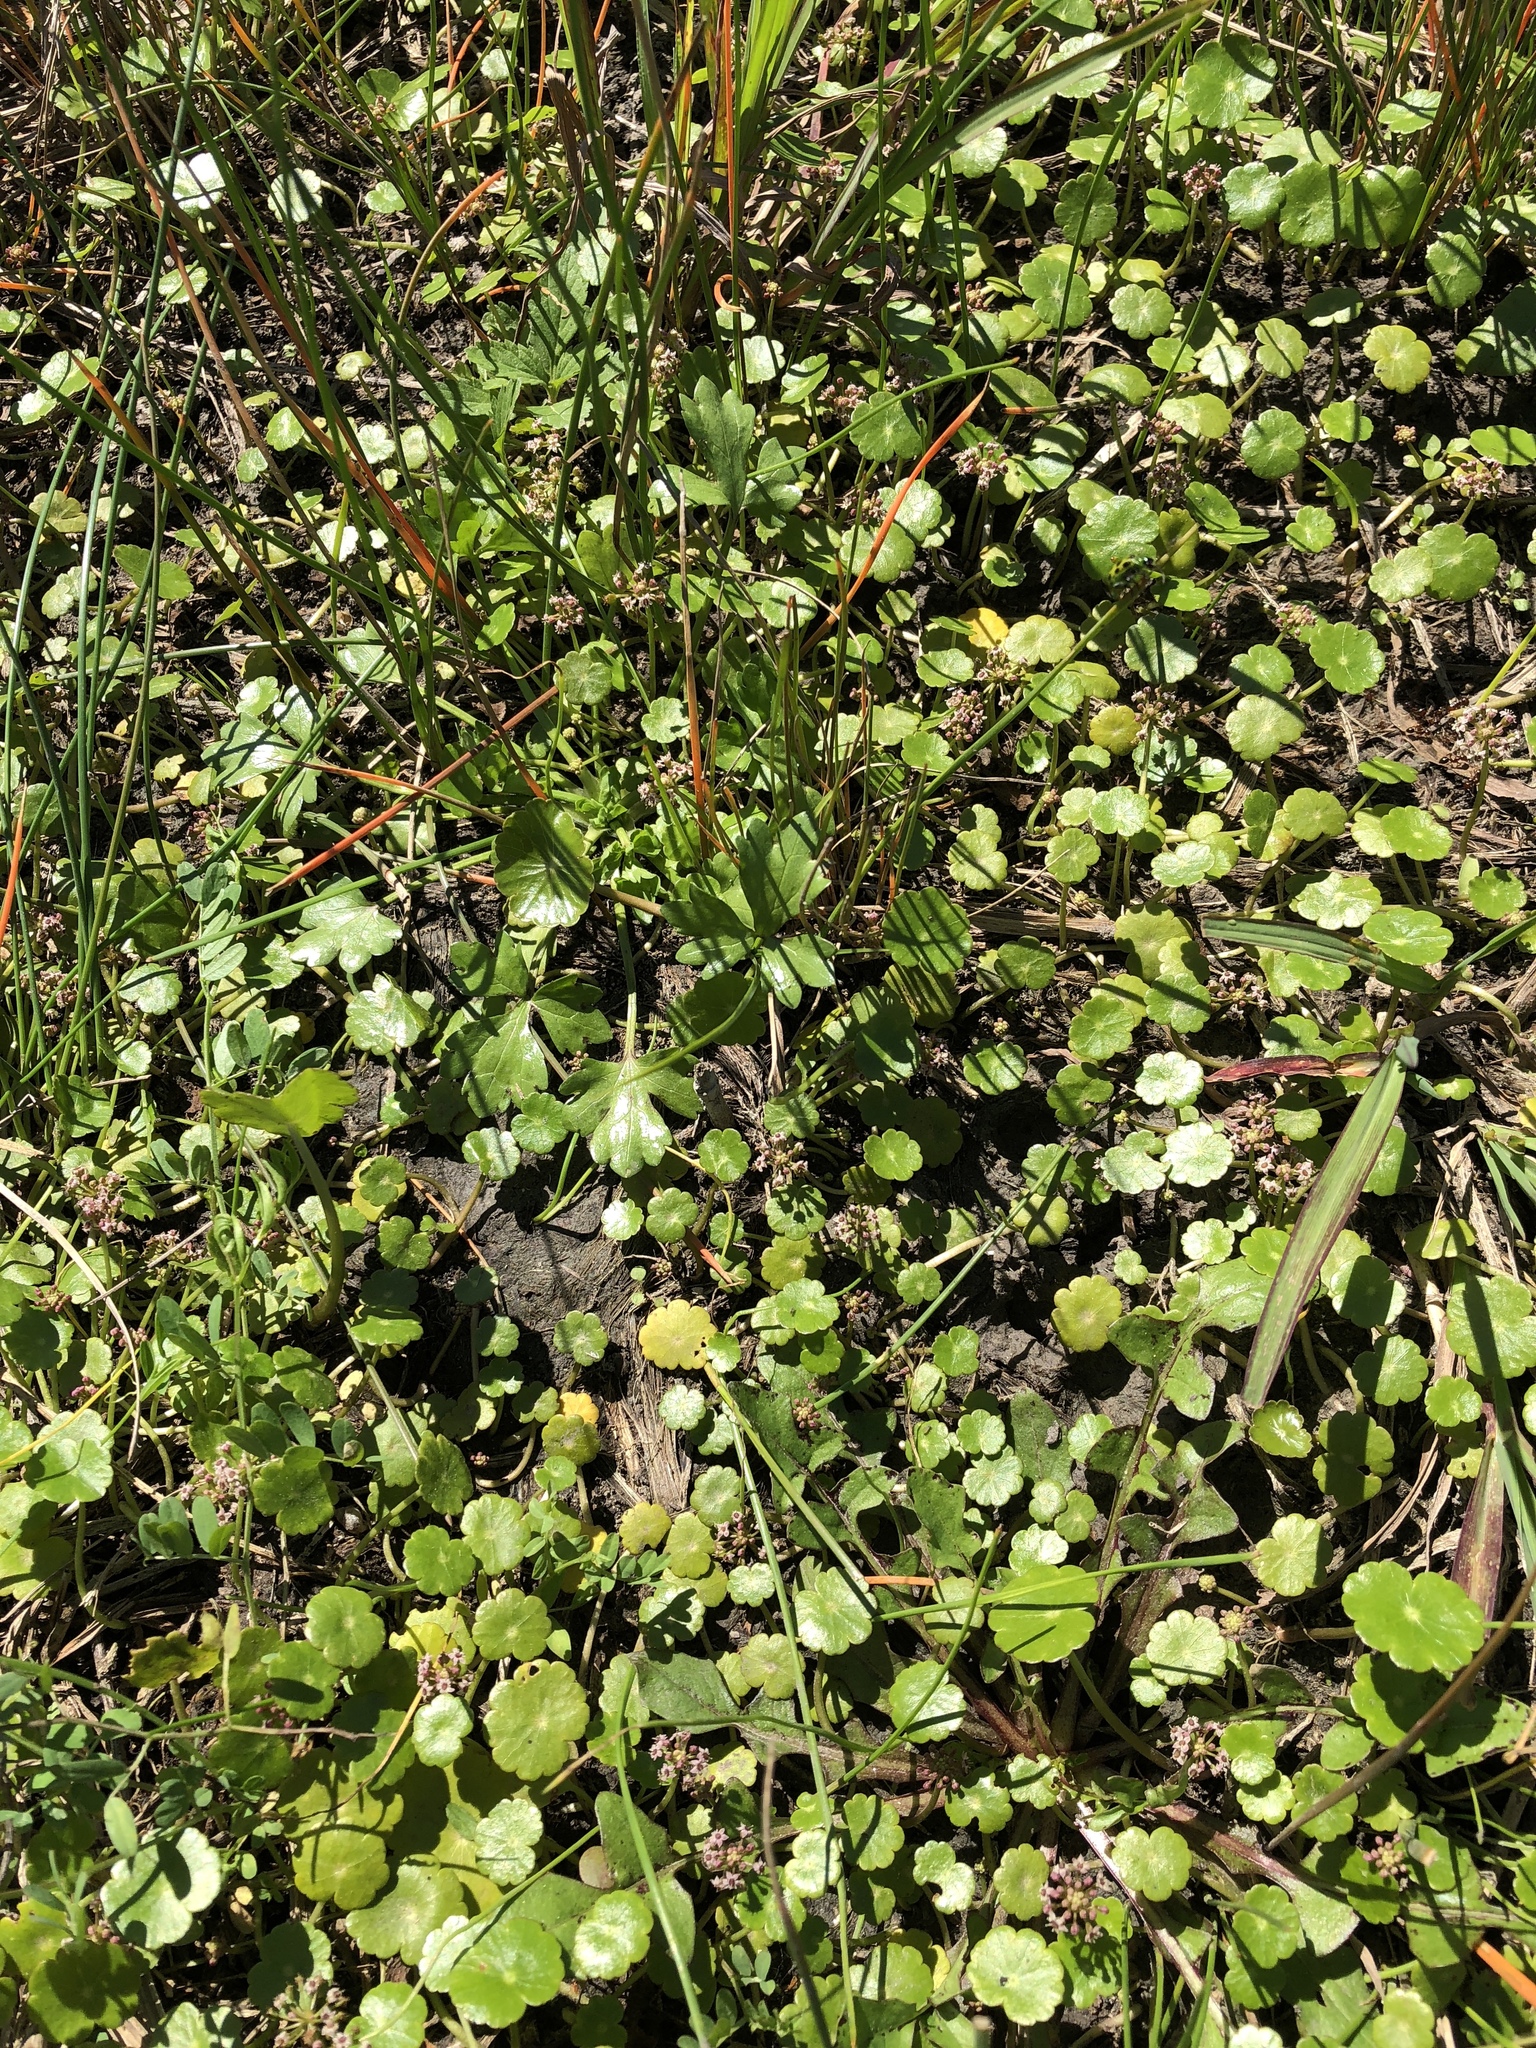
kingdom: Plantae
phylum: Tracheophyta
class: Magnoliopsida
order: Apiales
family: Araliaceae
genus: Hydrocotyle
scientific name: Hydrocotyle umbellata
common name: Water pennywort
